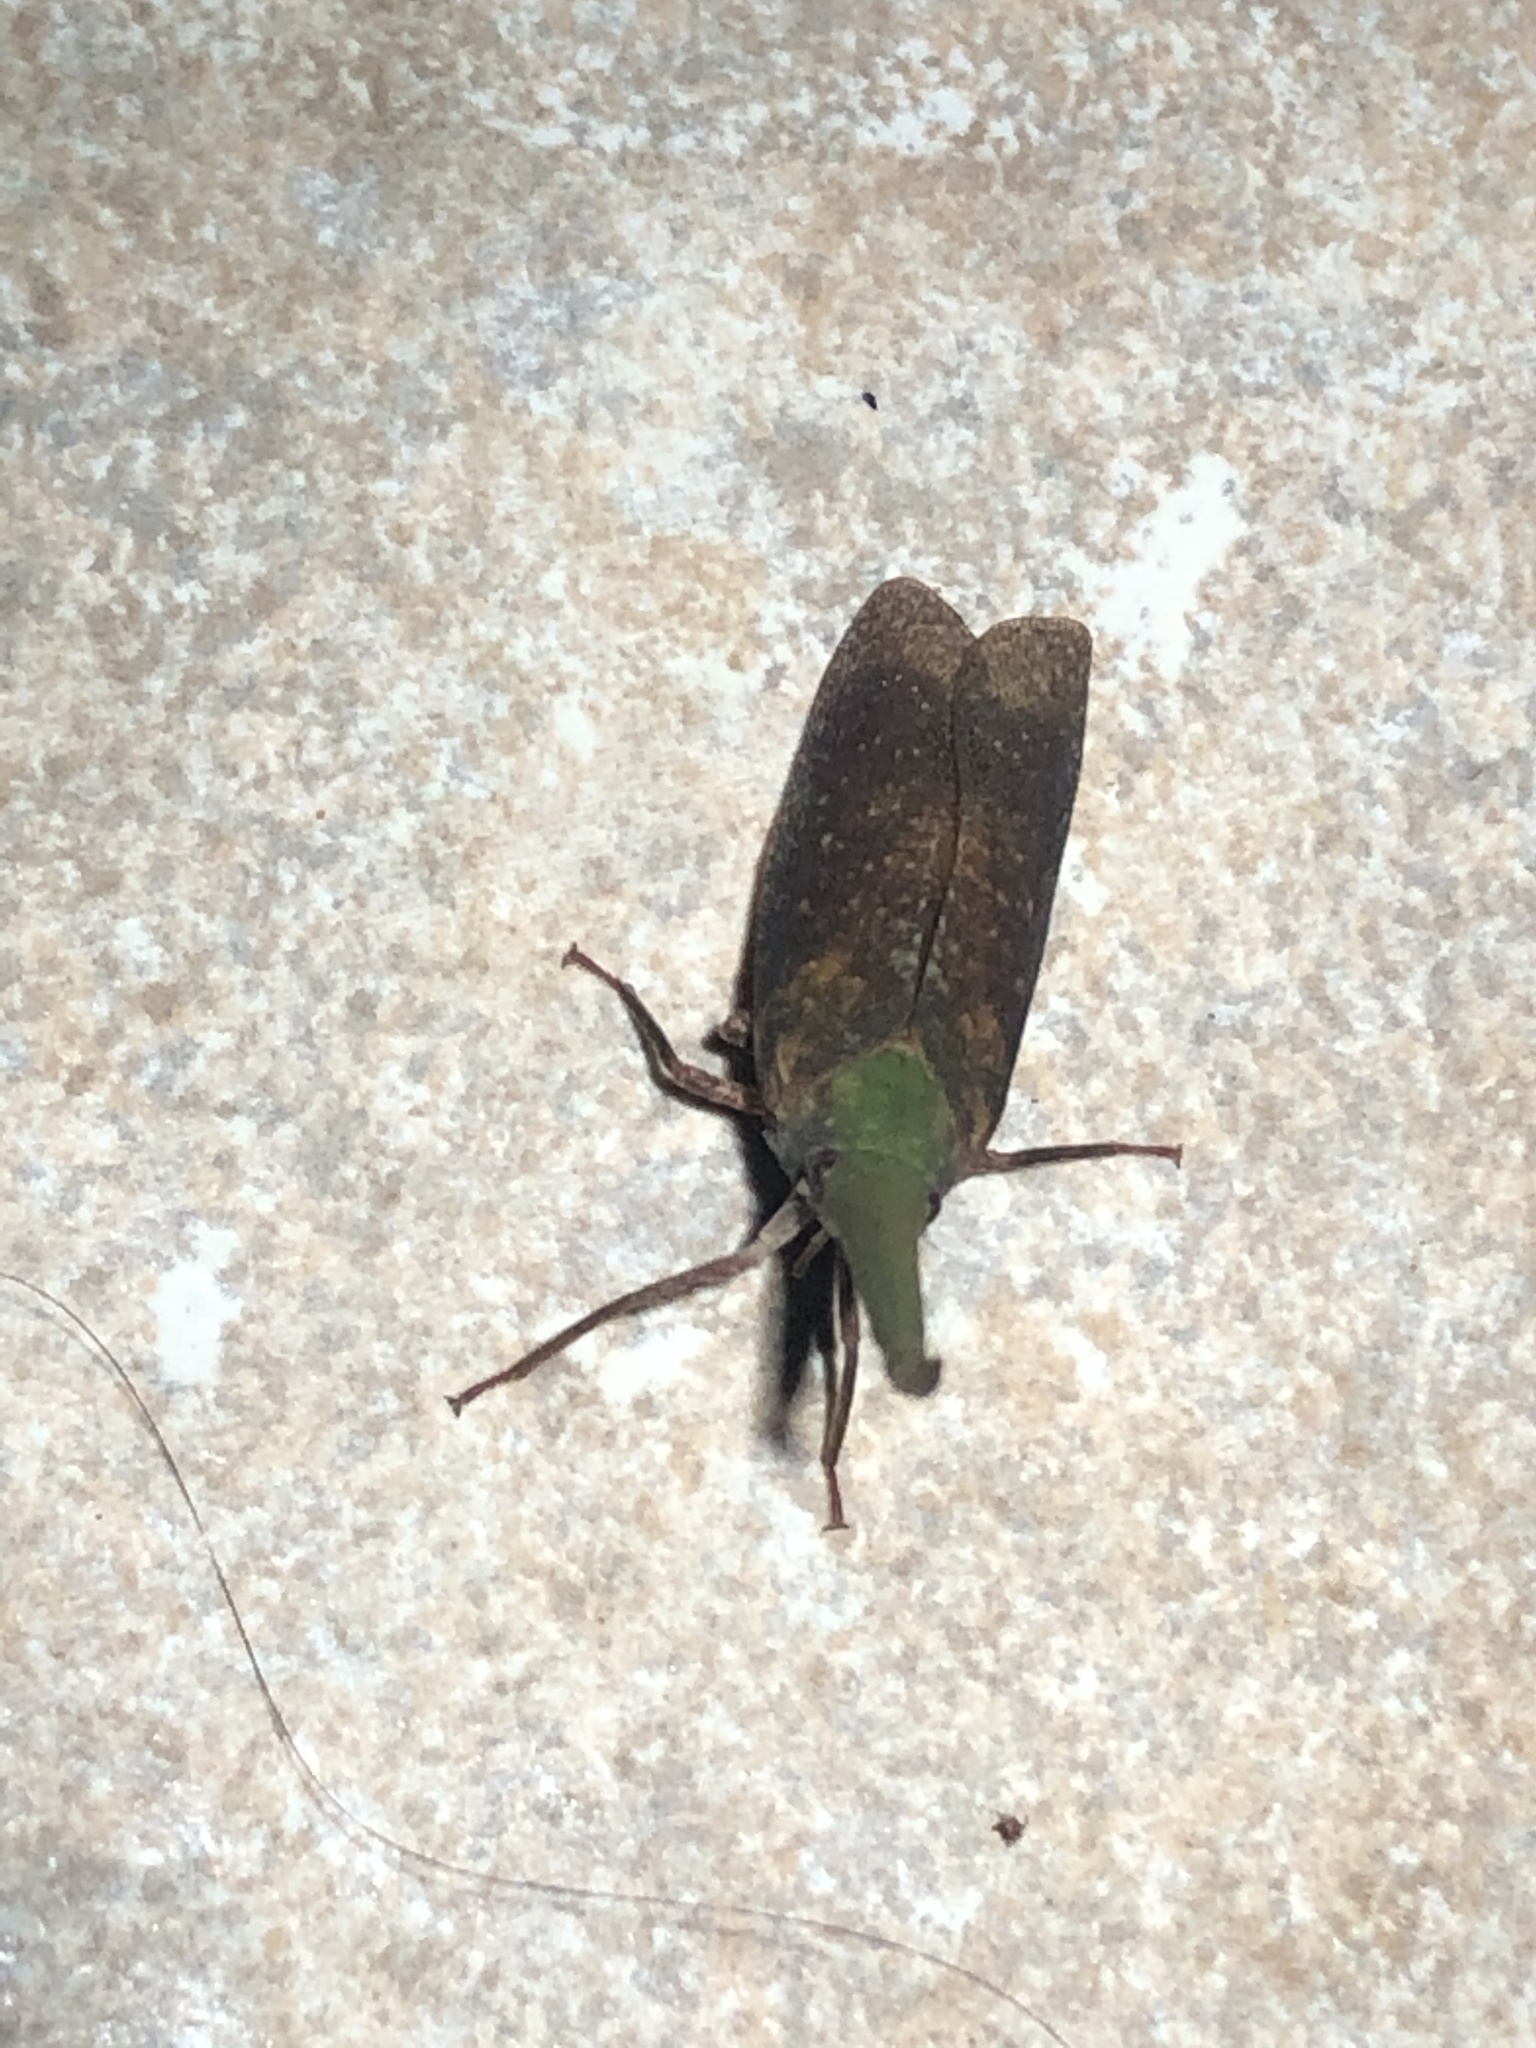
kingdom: Animalia
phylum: Arthropoda
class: Insecta
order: Hemiptera
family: Fulgoridae
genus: Amerzanna
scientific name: Amerzanna peruana
